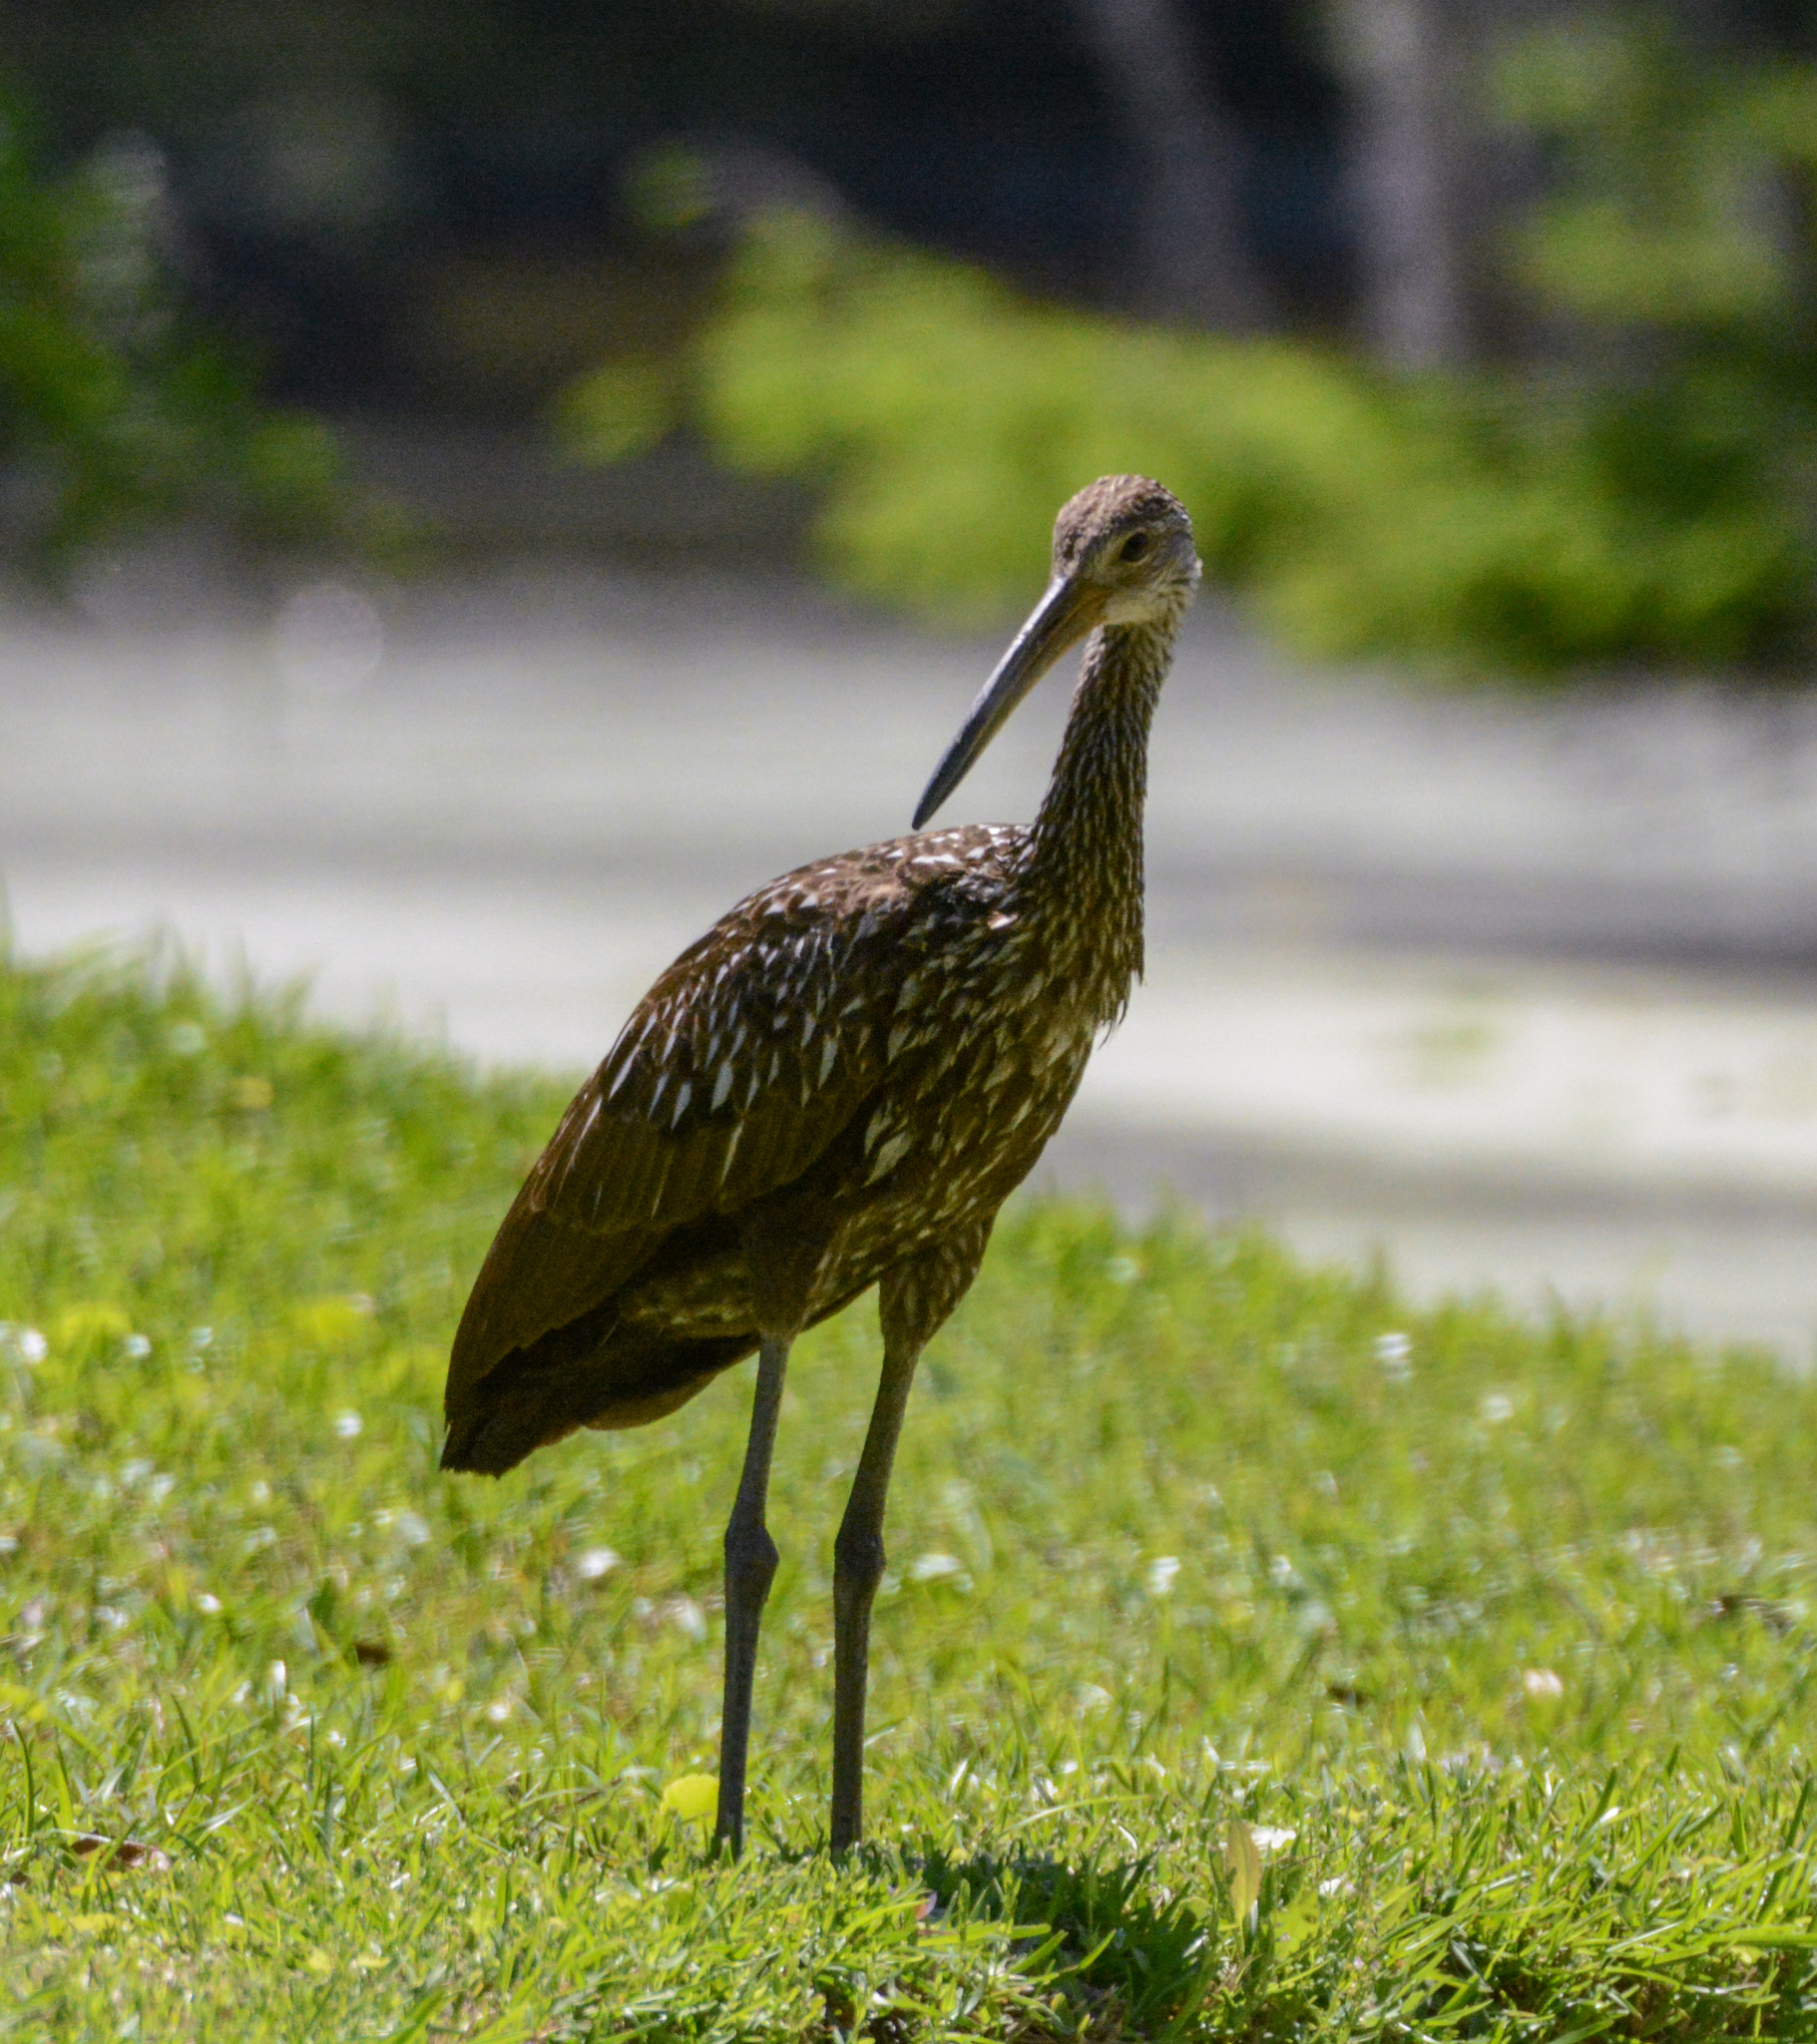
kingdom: Animalia
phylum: Chordata
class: Aves
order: Gruiformes
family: Aramidae
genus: Aramus
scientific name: Aramus guarauna
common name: Limpkin
